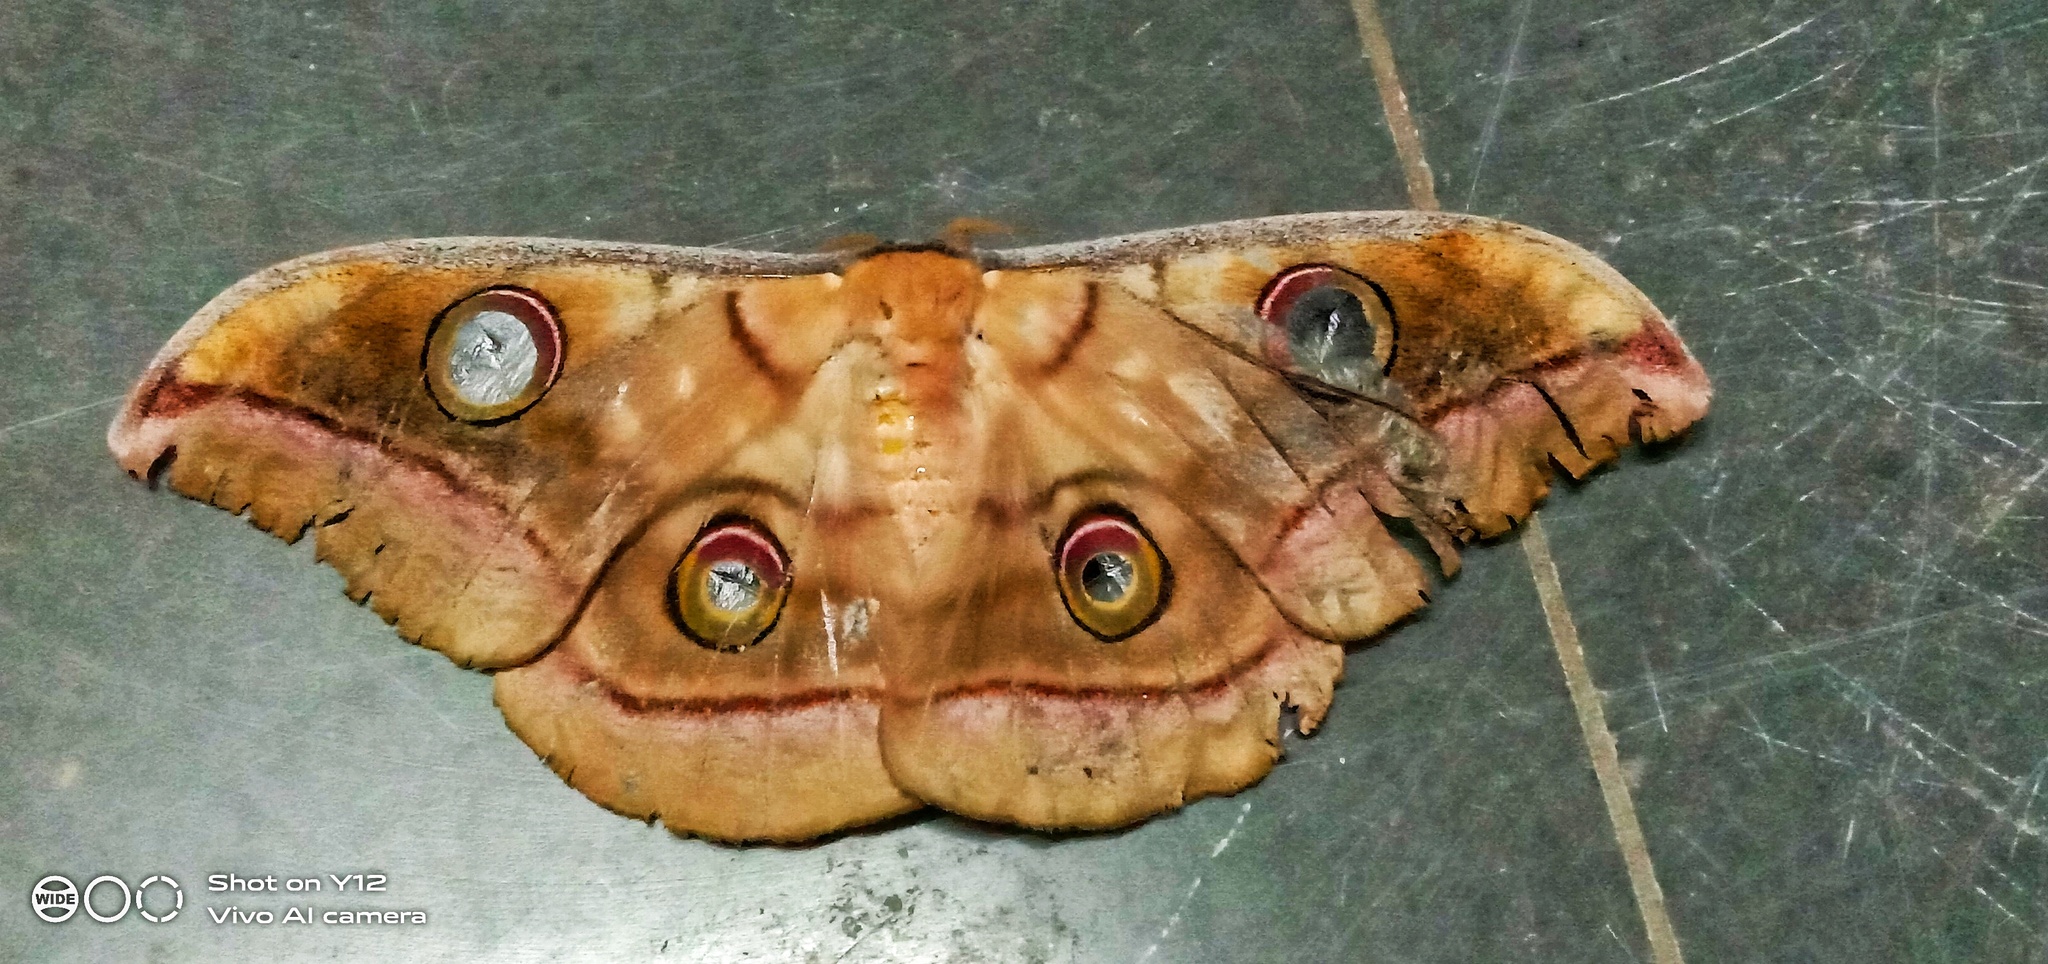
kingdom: Animalia
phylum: Arthropoda
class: Insecta
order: Lepidoptera
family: Saturniidae
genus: Antheraea
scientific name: Antheraea paphia
